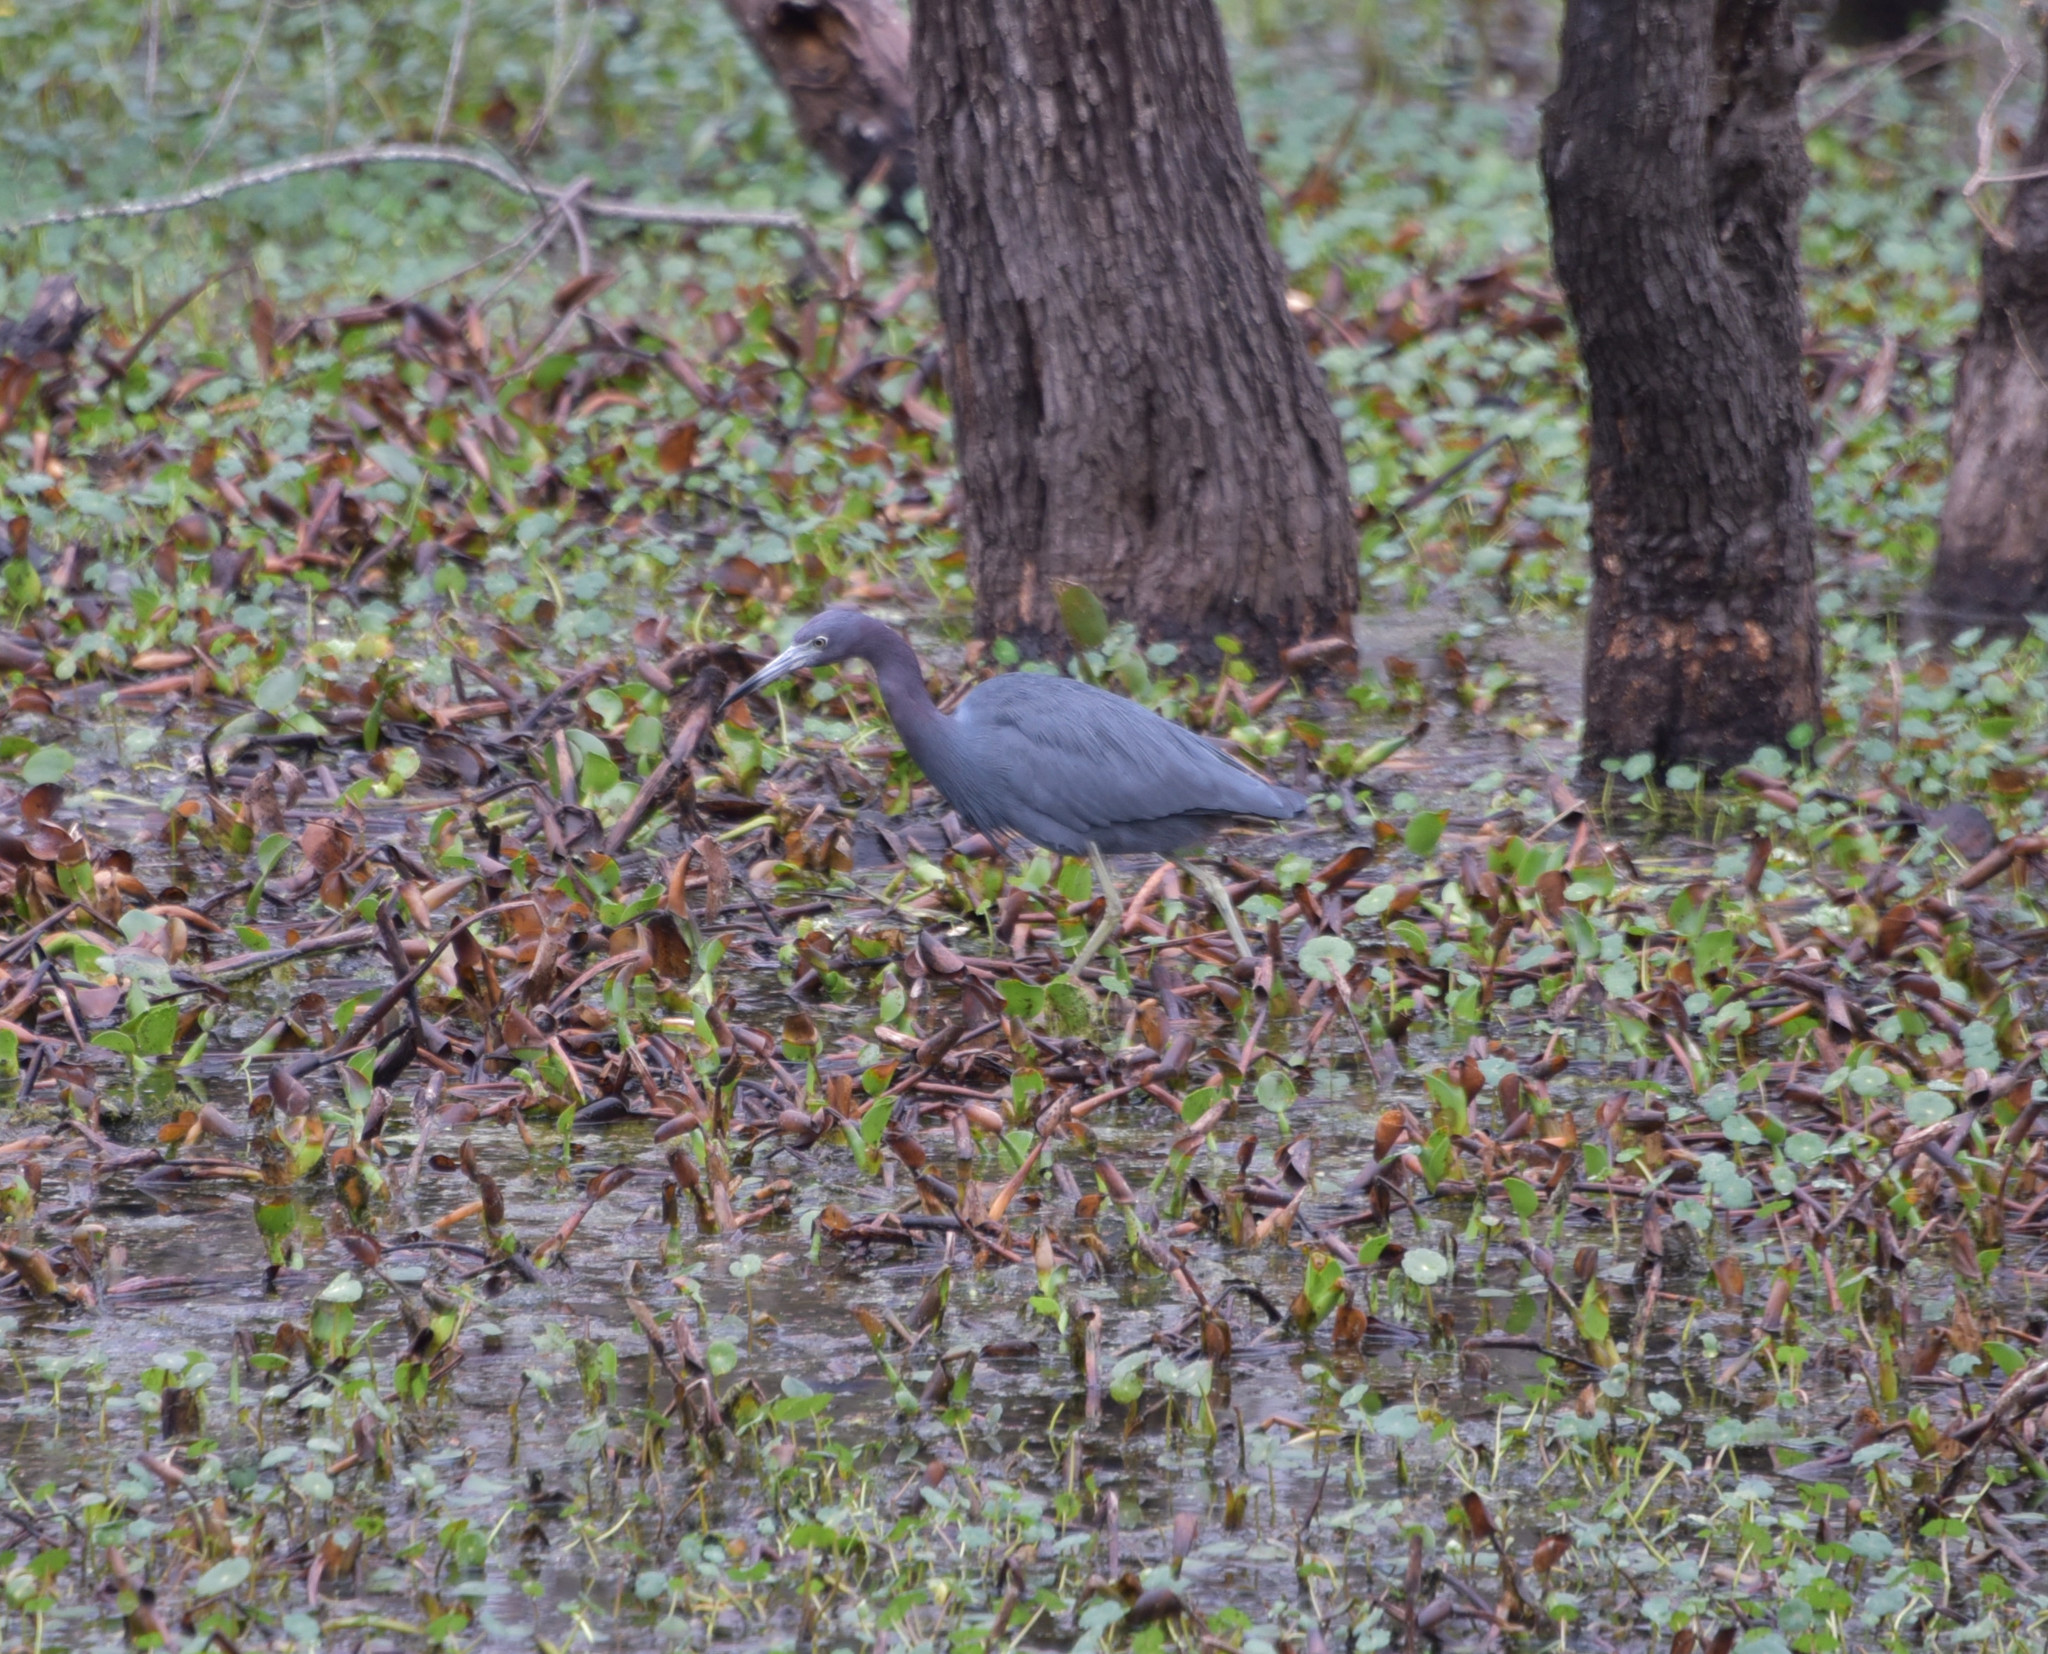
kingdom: Animalia
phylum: Chordata
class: Aves
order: Pelecaniformes
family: Ardeidae
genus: Egretta
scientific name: Egretta caerulea
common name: Little blue heron
